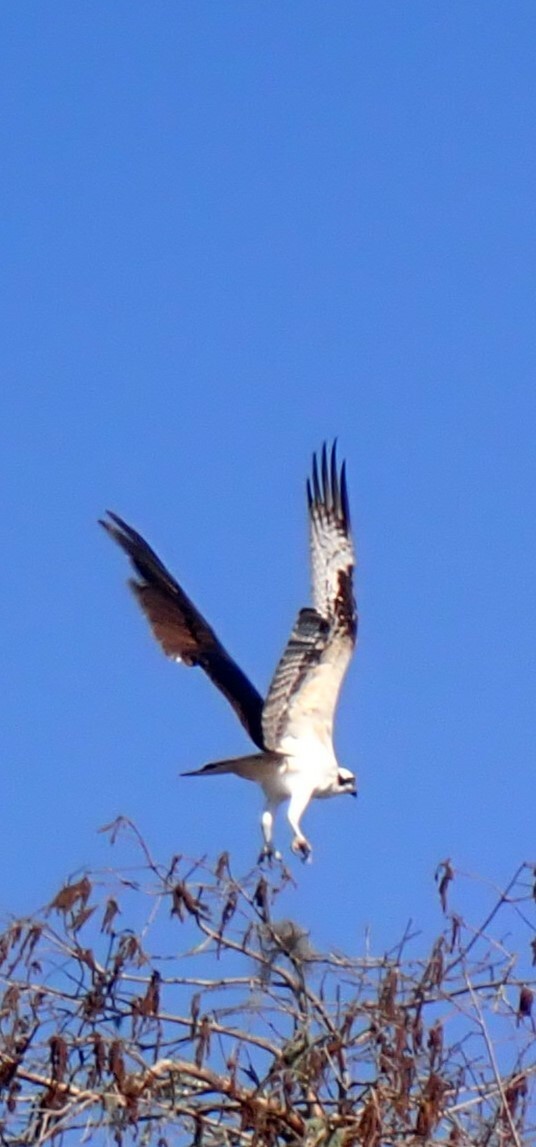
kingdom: Animalia
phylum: Chordata
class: Aves
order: Accipitriformes
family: Pandionidae
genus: Pandion
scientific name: Pandion haliaetus
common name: Osprey
